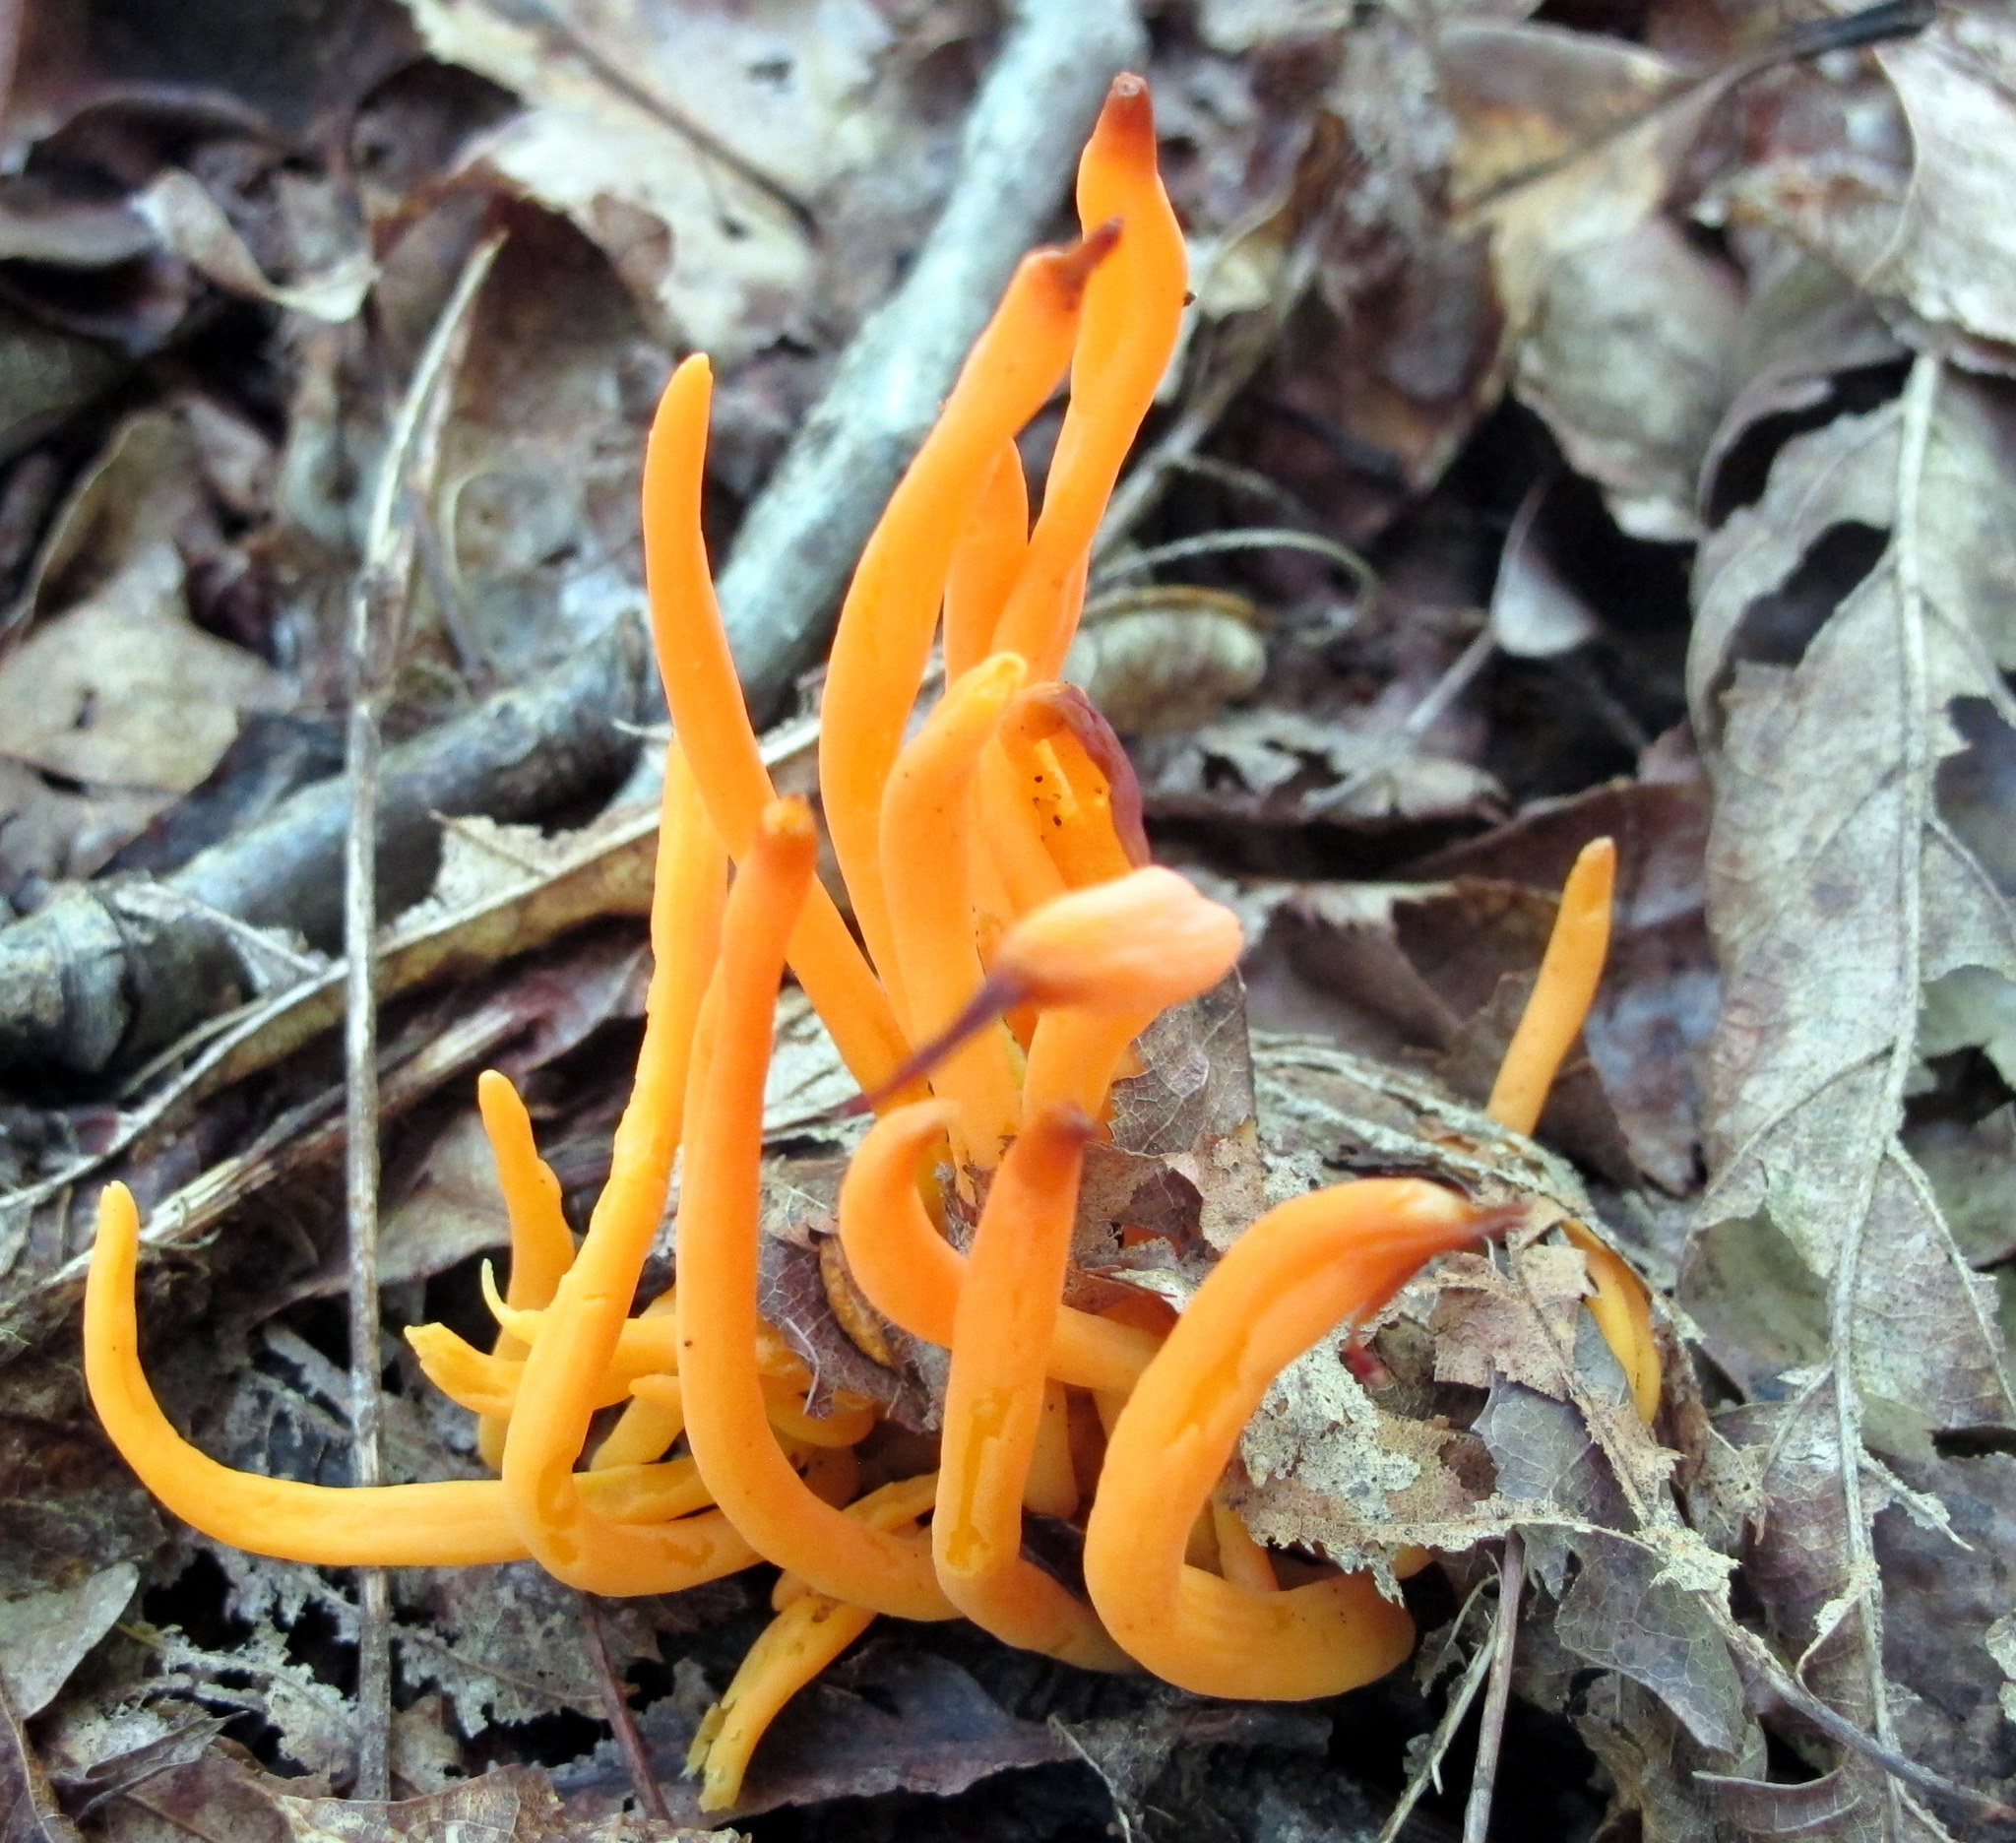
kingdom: Fungi
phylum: Basidiomycota
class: Agaricomycetes
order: Agaricales
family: Clavariaceae
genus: Clavulinopsis
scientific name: Clavulinopsis aurantiocinnabarina
